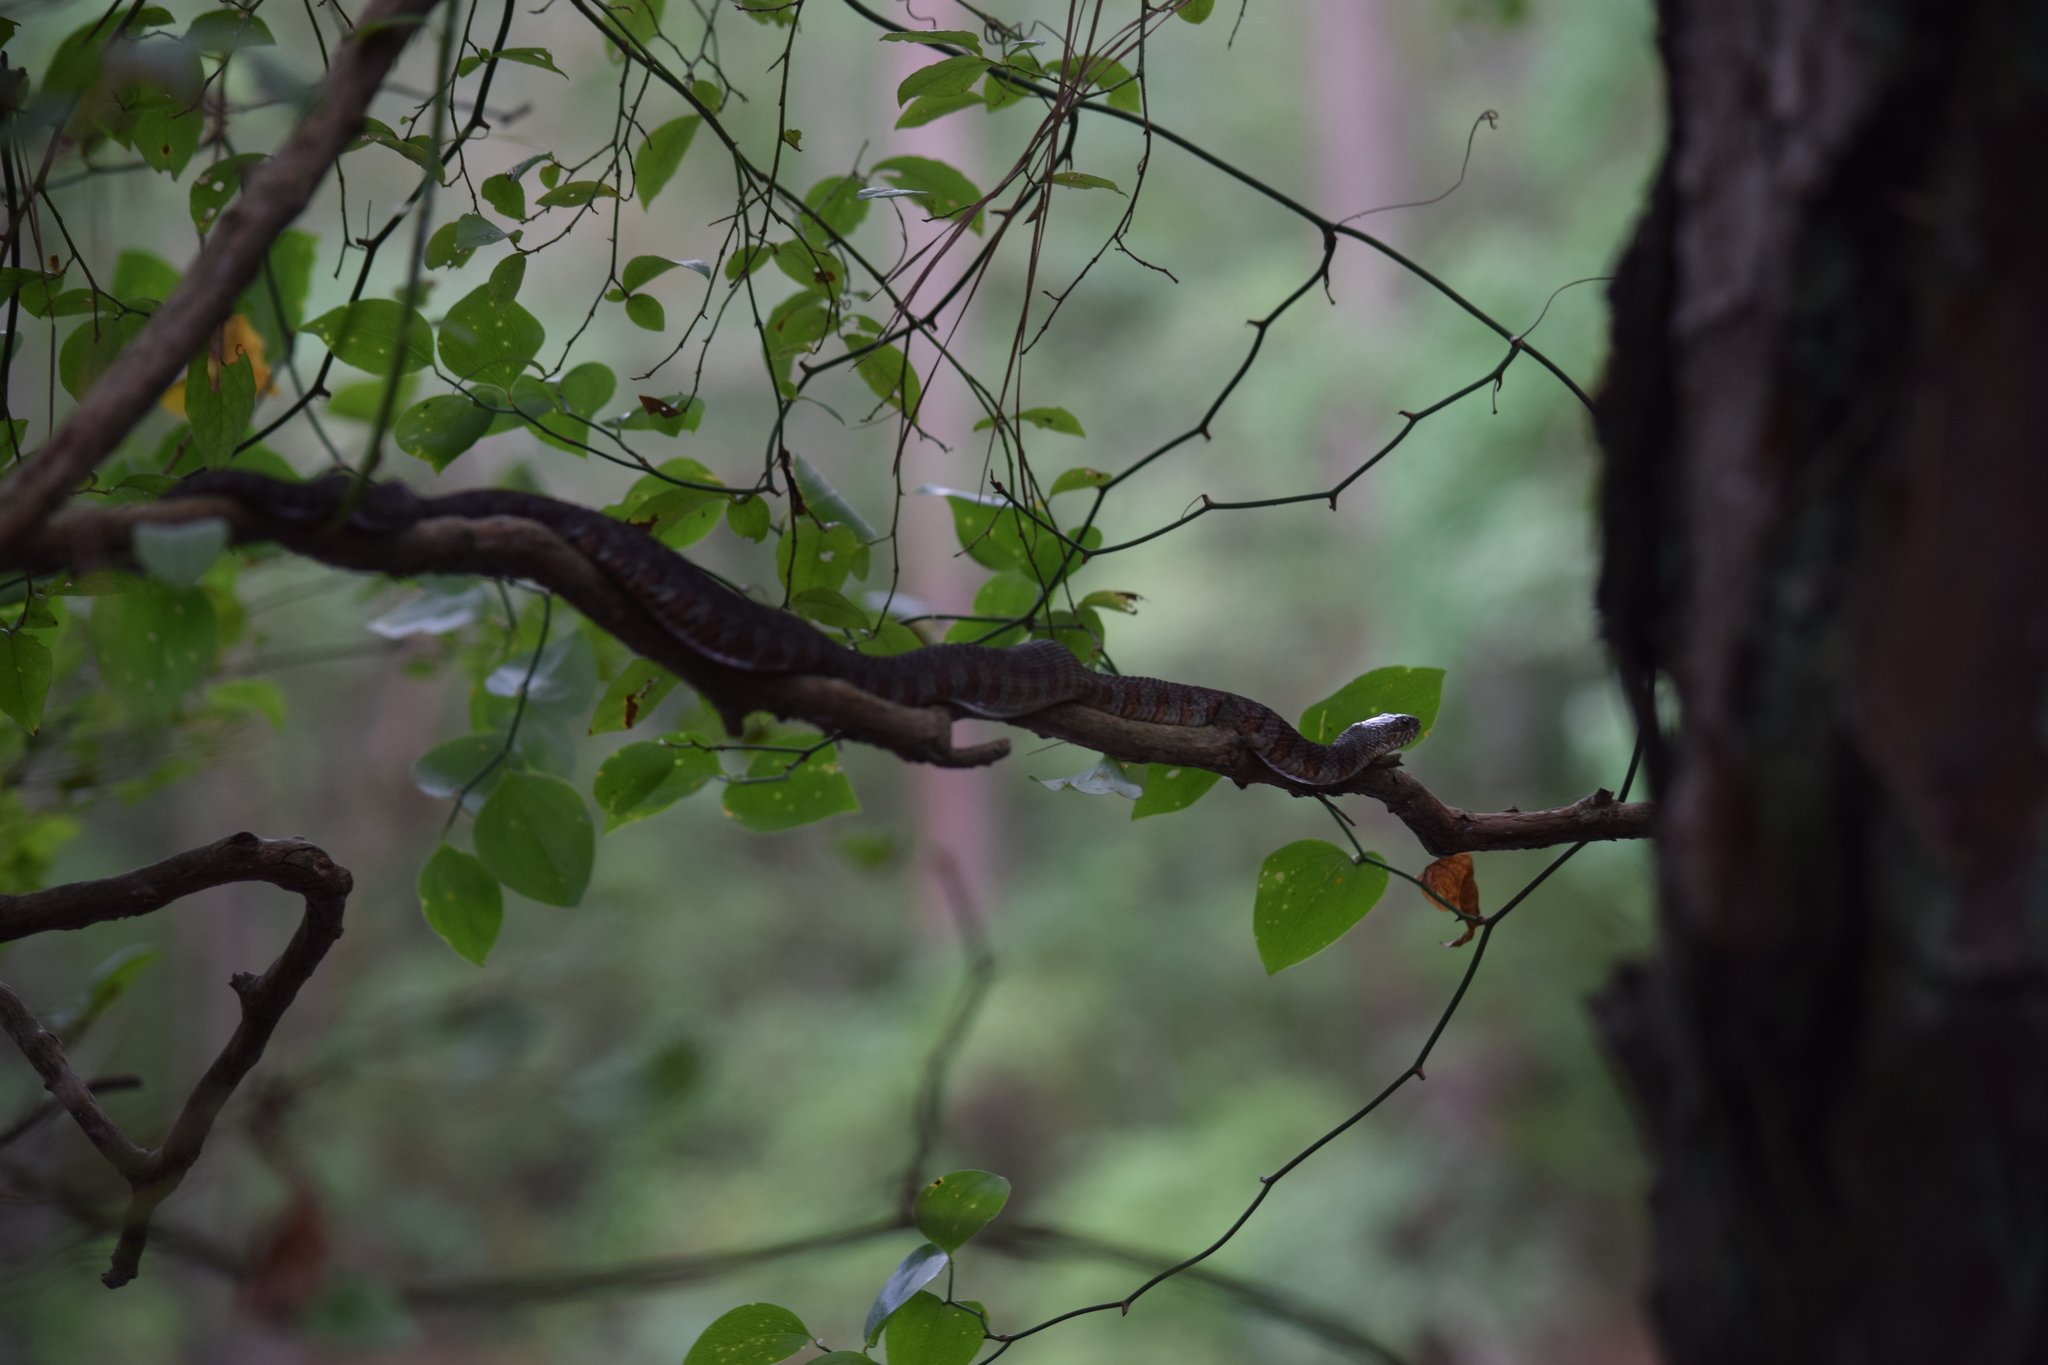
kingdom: Animalia
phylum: Chordata
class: Squamata
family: Colubridae
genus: Nerodia
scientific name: Nerodia sipedon
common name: Northern water snake
